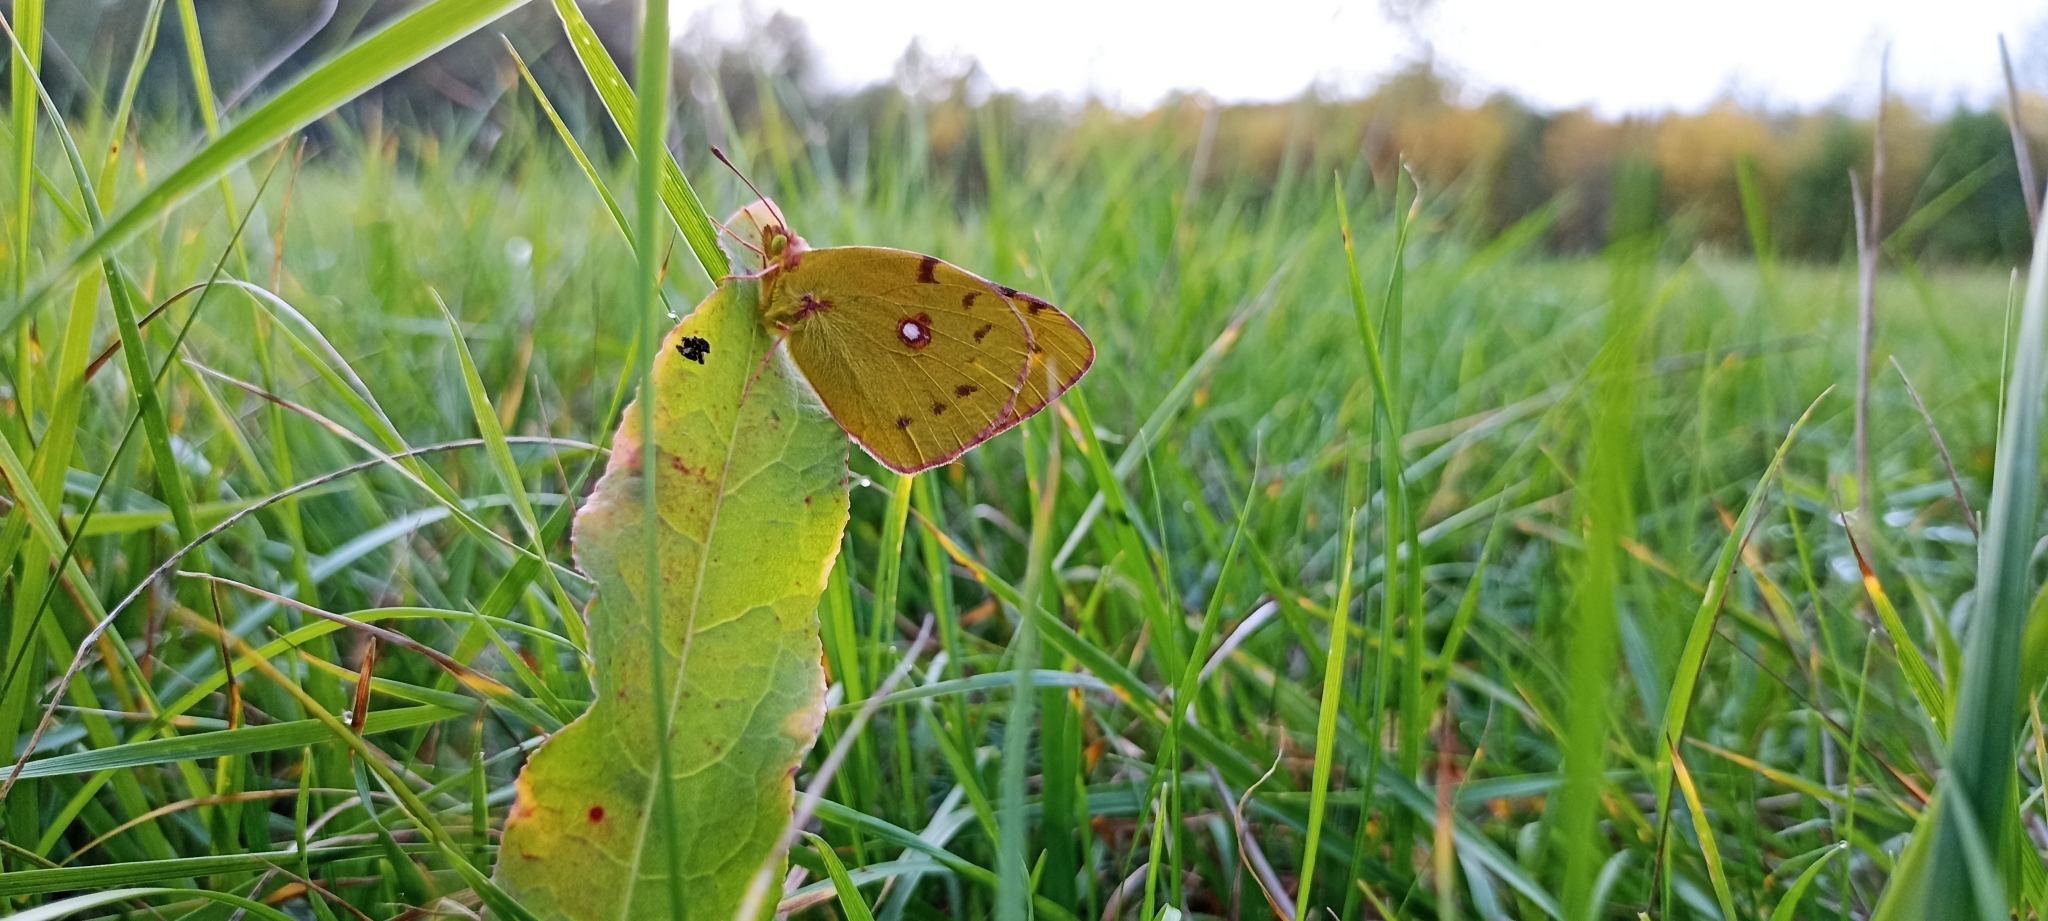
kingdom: Animalia
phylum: Arthropoda
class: Insecta
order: Lepidoptera
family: Pieridae
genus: Colias
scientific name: Colias croceus
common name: Clouded yellow
